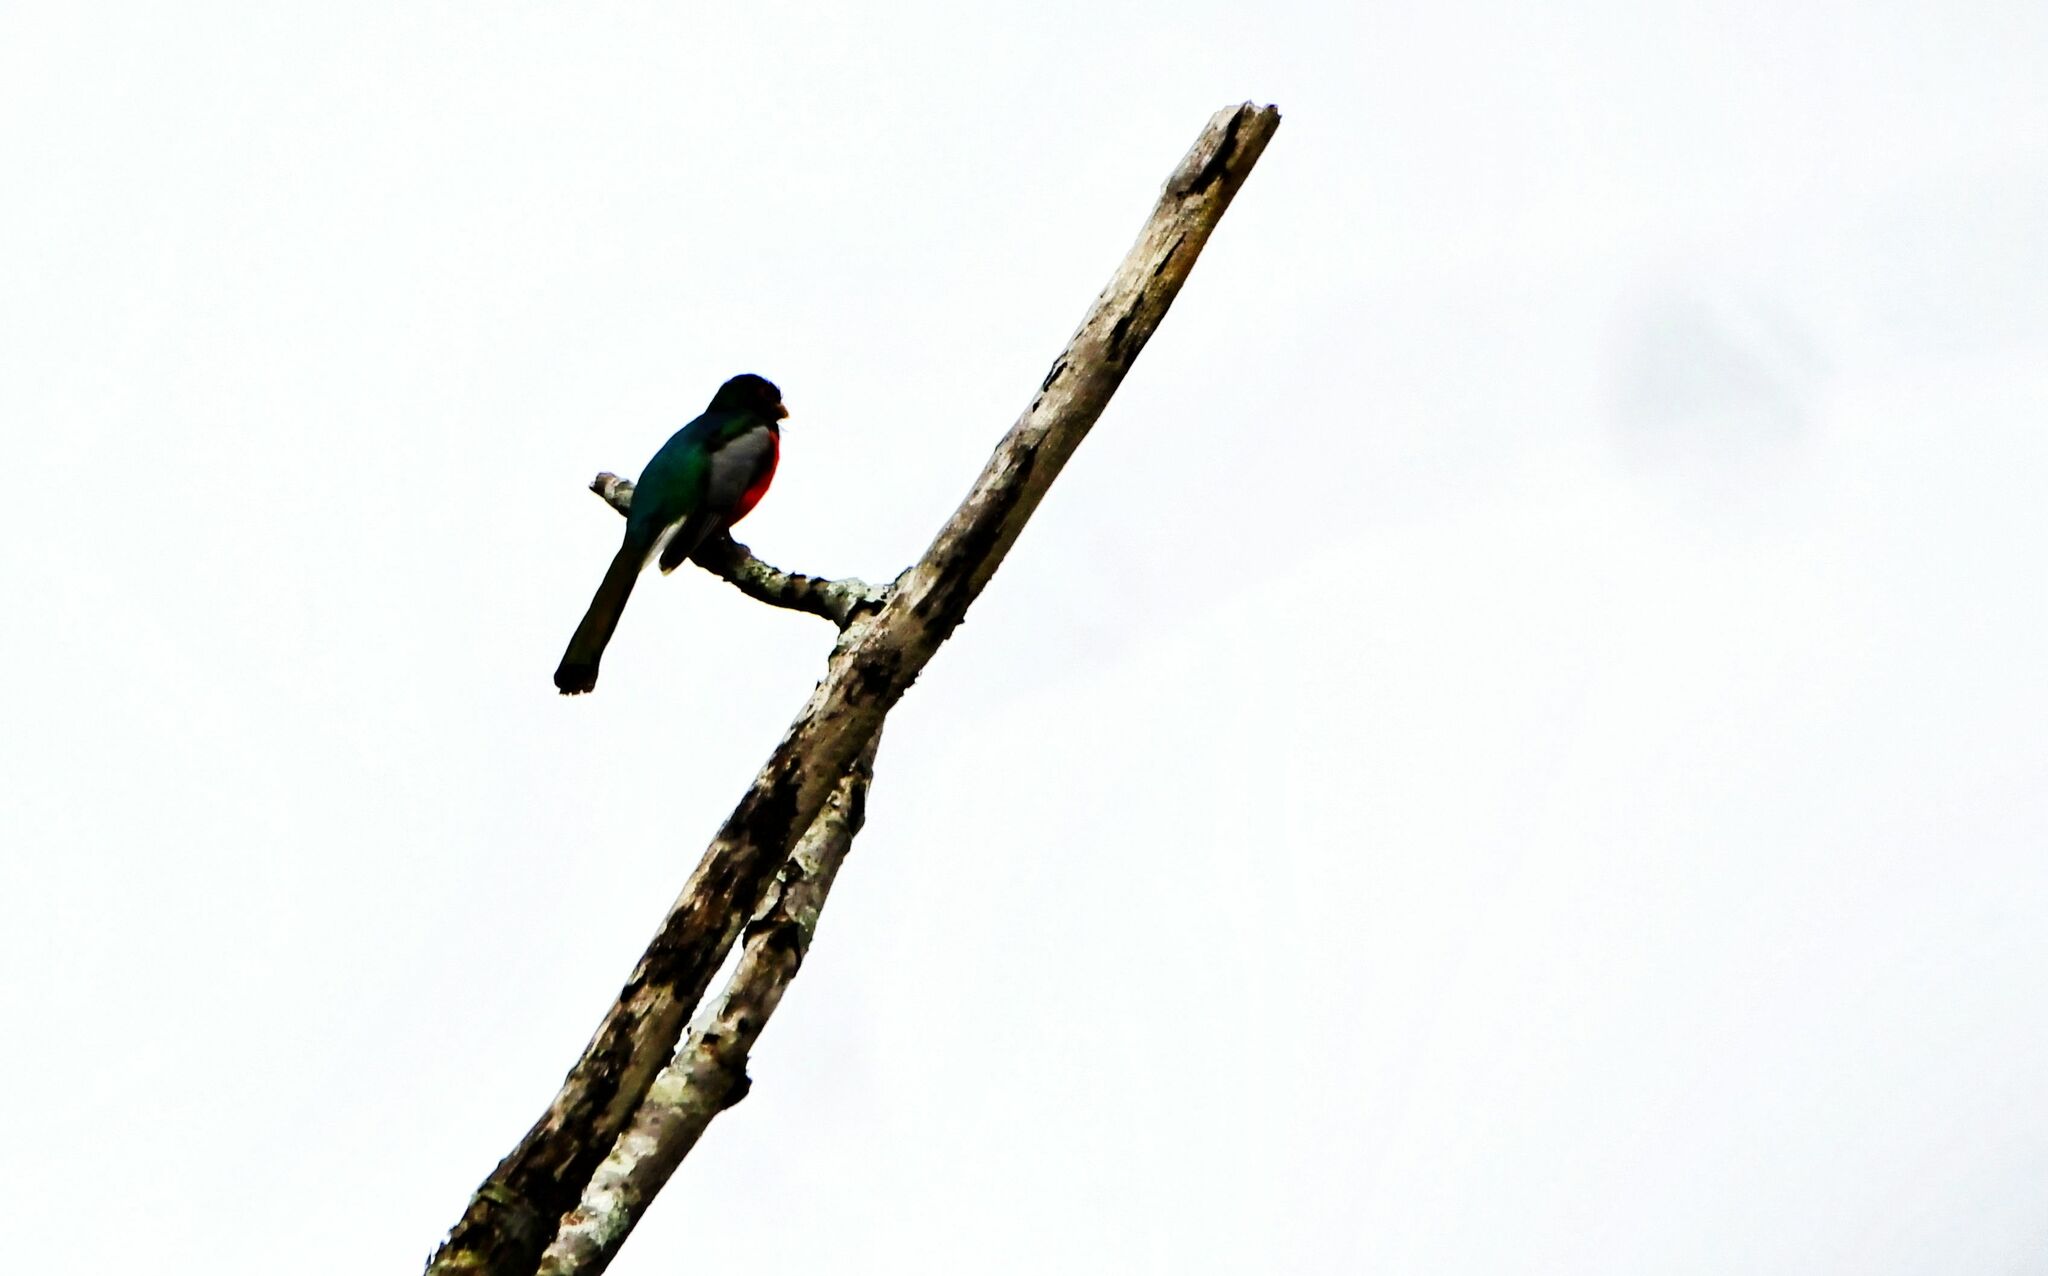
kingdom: Animalia
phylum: Chordata
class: Aves
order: Trogoniformes
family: Trogonidae
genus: Trogon
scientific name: Trogon elegans
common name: Elegant trogon
